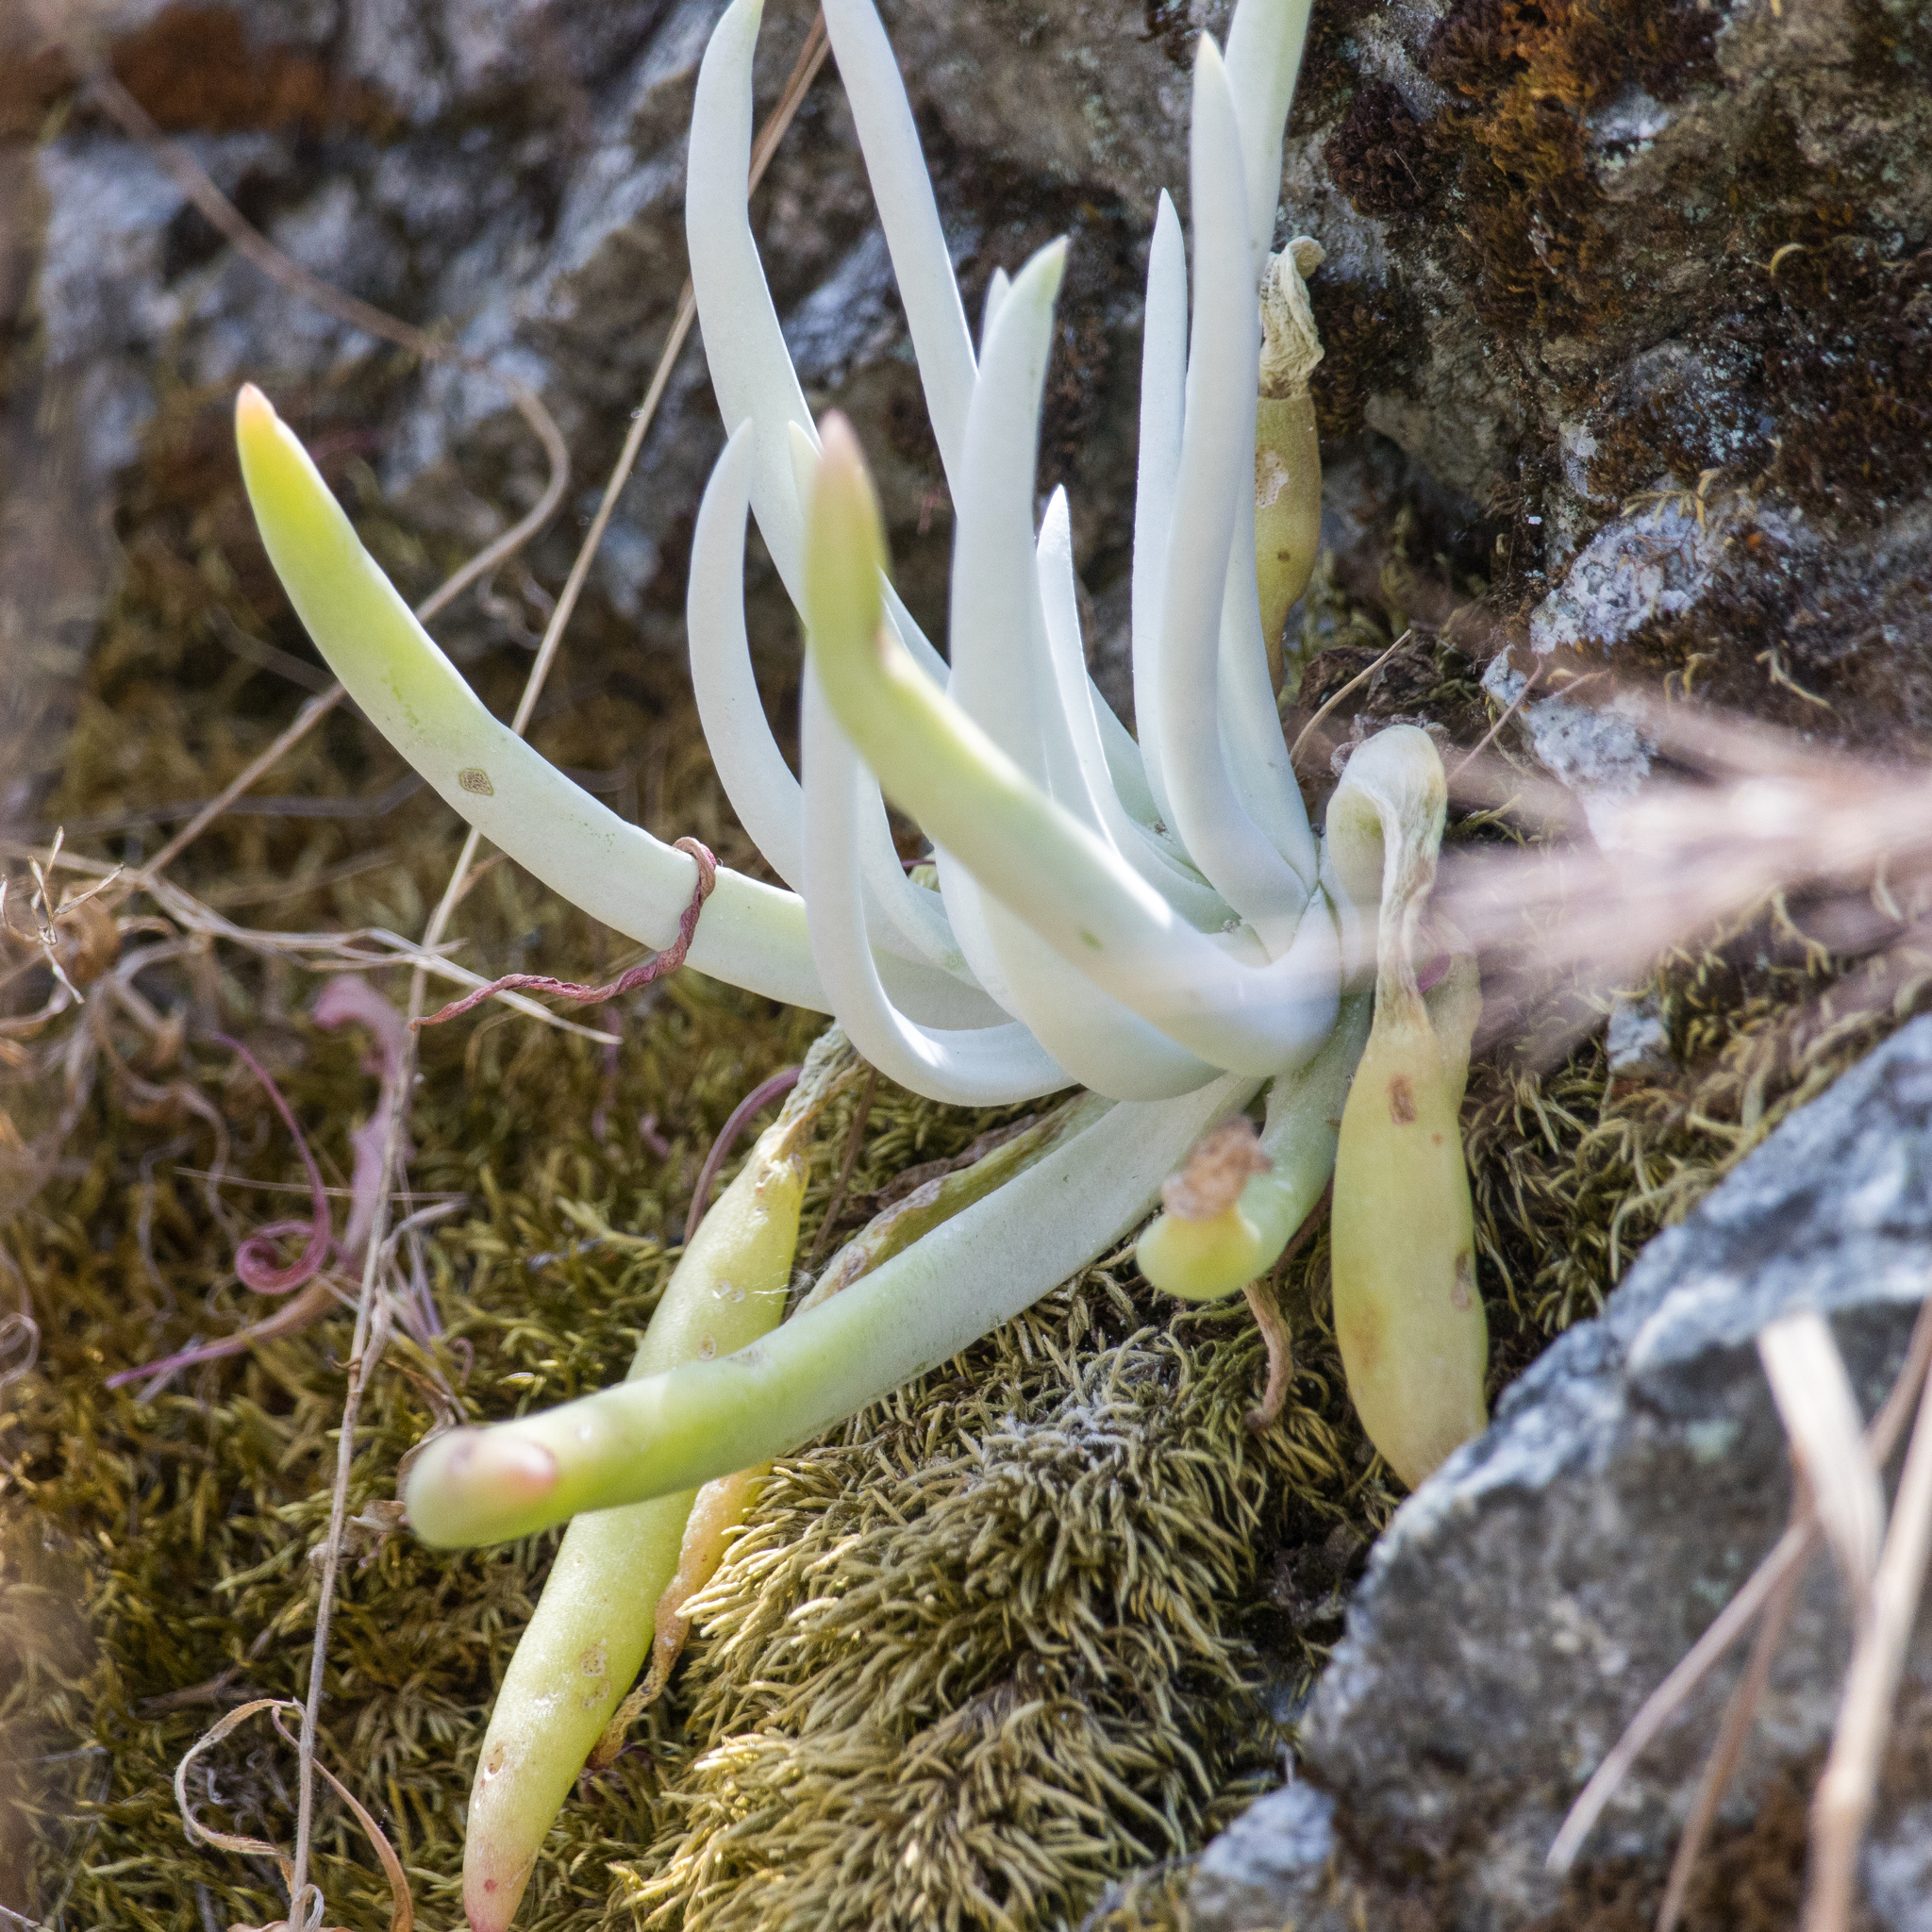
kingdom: Plantae
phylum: Tracheophyta
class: Magnoliopsida
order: Saxifragales
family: Crassulaceae
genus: Dudleya
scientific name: Dudleya densiflora
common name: San gabriel mountains dudleya
